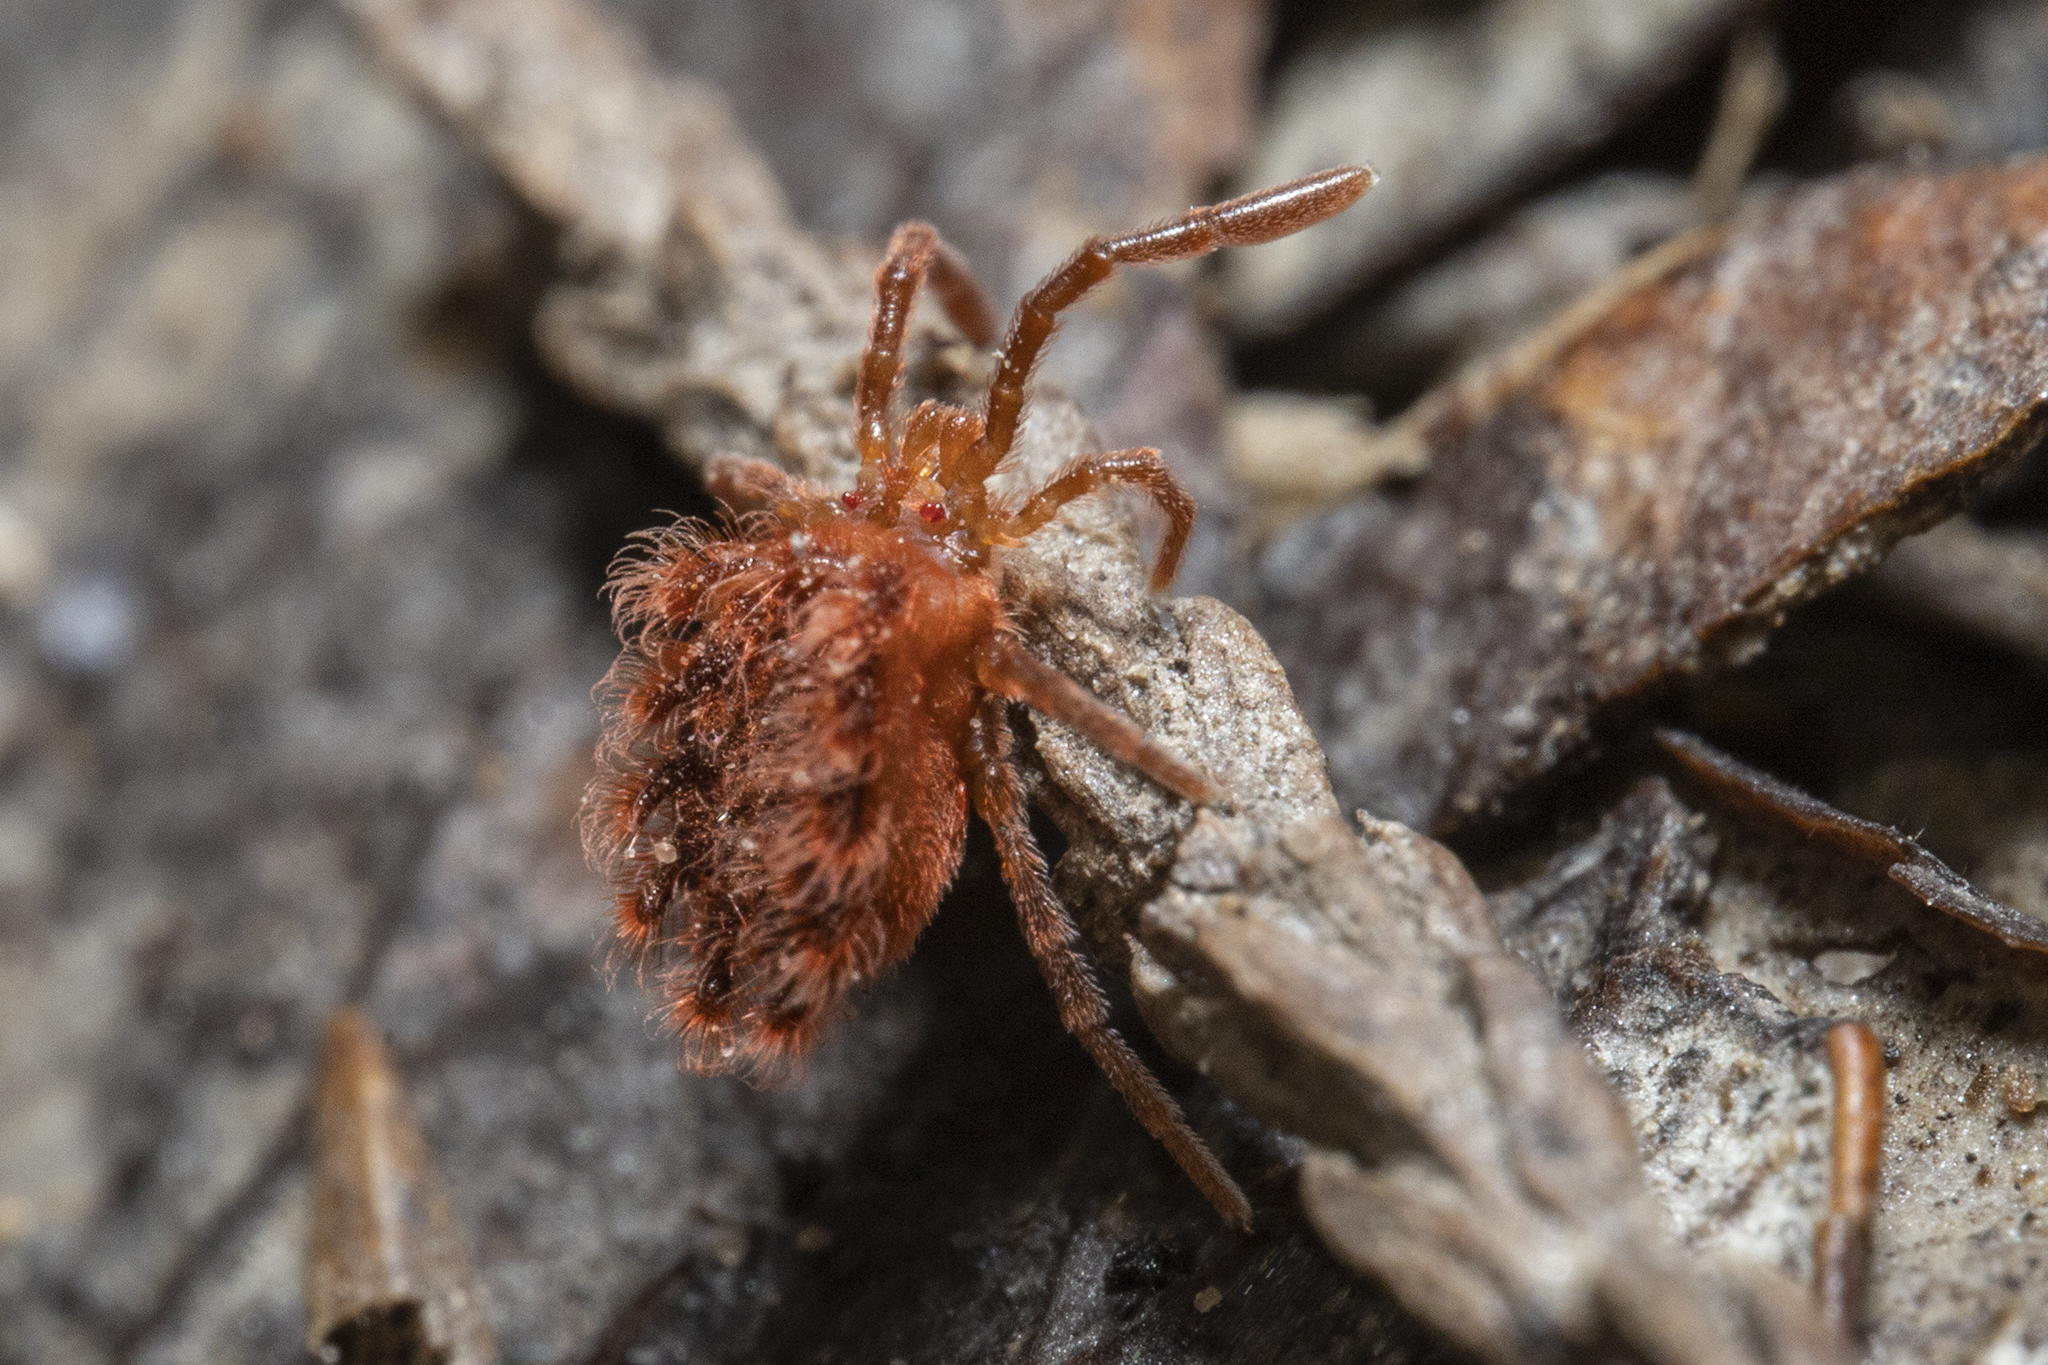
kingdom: Animalia
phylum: Arthropoda
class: Arachnida
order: Trombidiformes
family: Chyzeriidae
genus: Chyzeria
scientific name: Chyzeria
